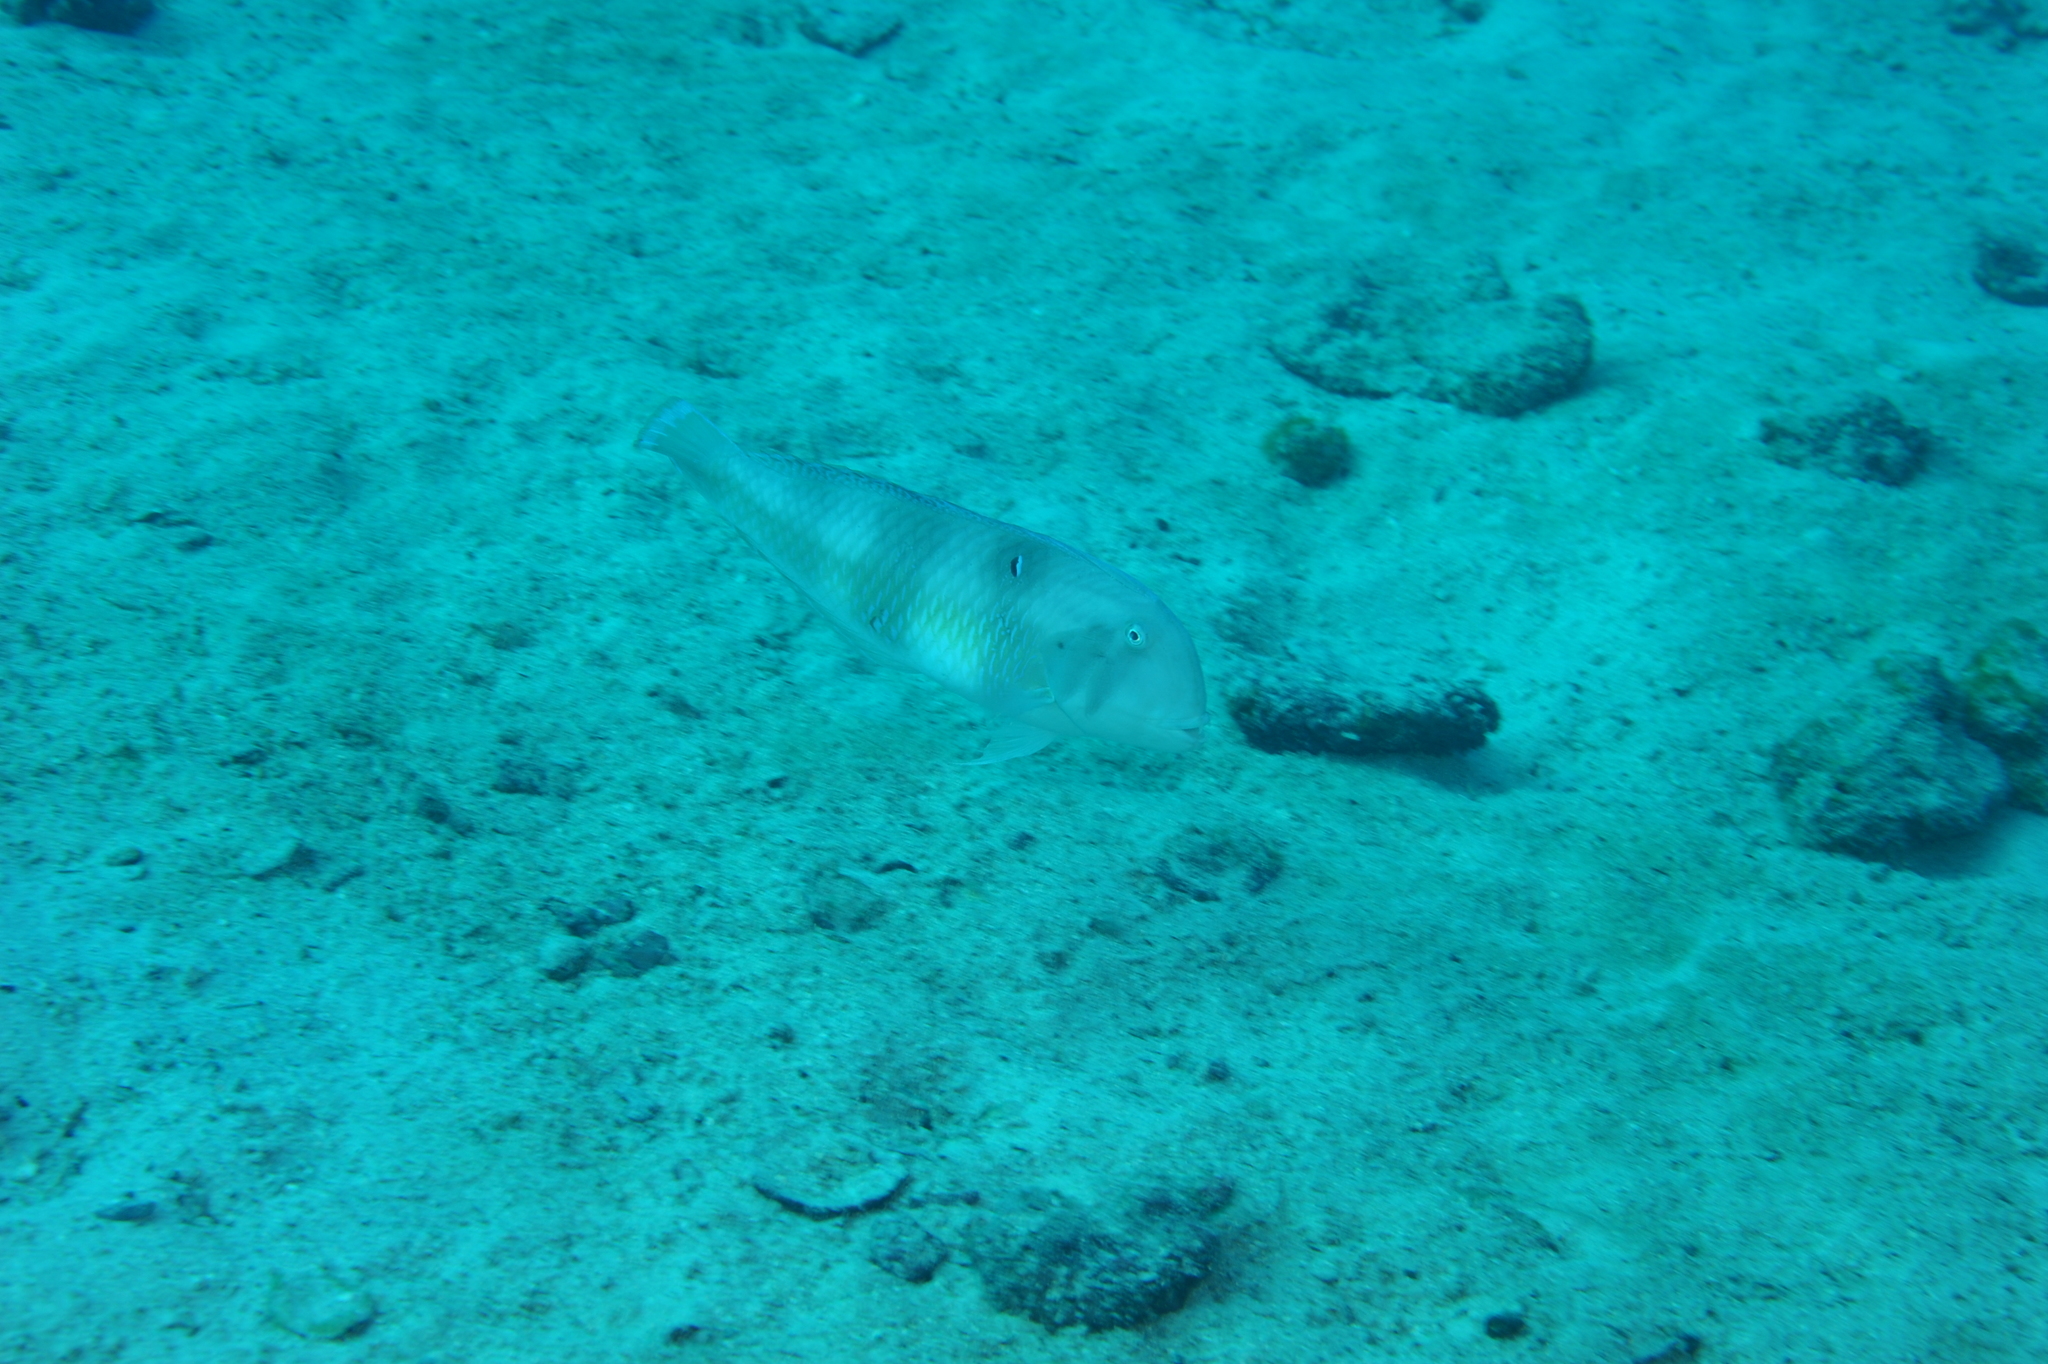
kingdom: Animalia
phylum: Chordata
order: Perciformes
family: Labridae
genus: Iniistius
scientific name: Iniistius pavo
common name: Peacock wrasse
